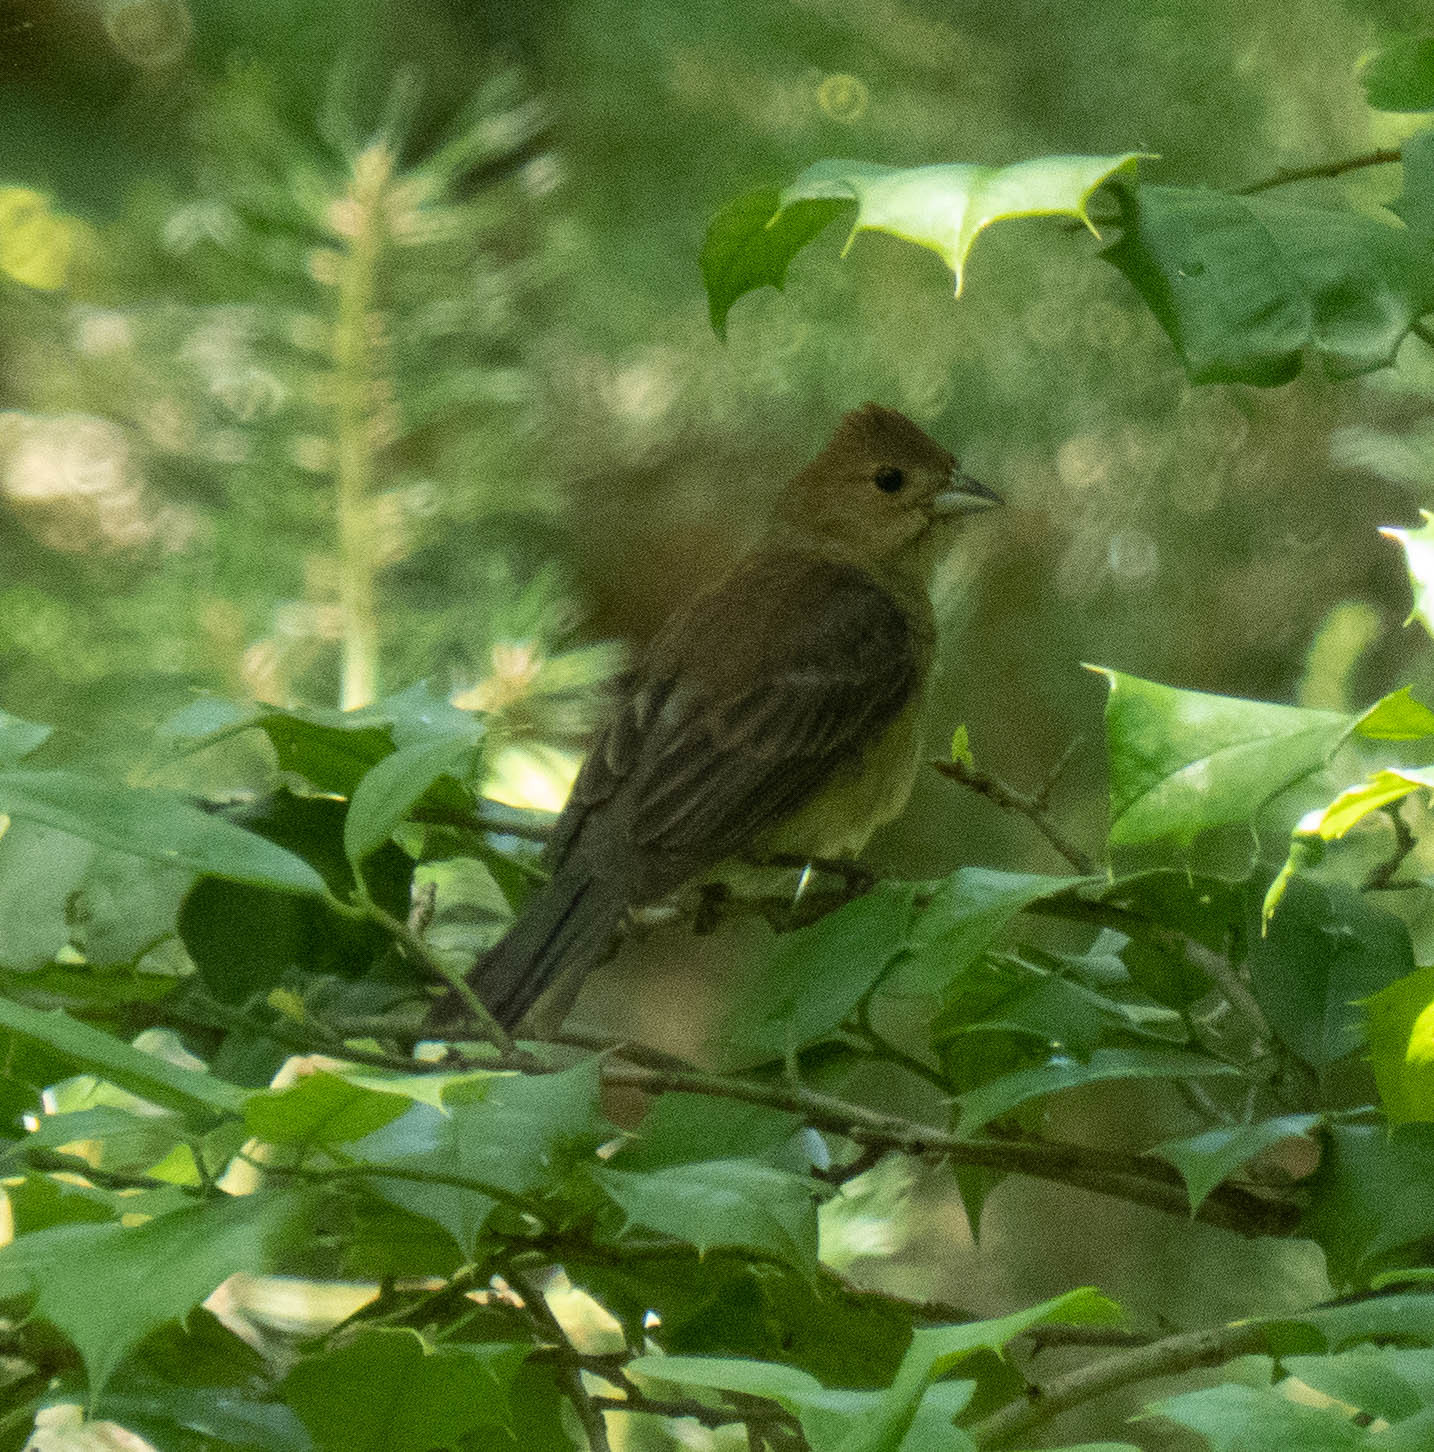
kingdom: Animalia
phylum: Chordata
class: Aves
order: Passeriformes
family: Cardinalidae
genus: Passerina
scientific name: Passerina cyanea
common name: Indigo bunting
